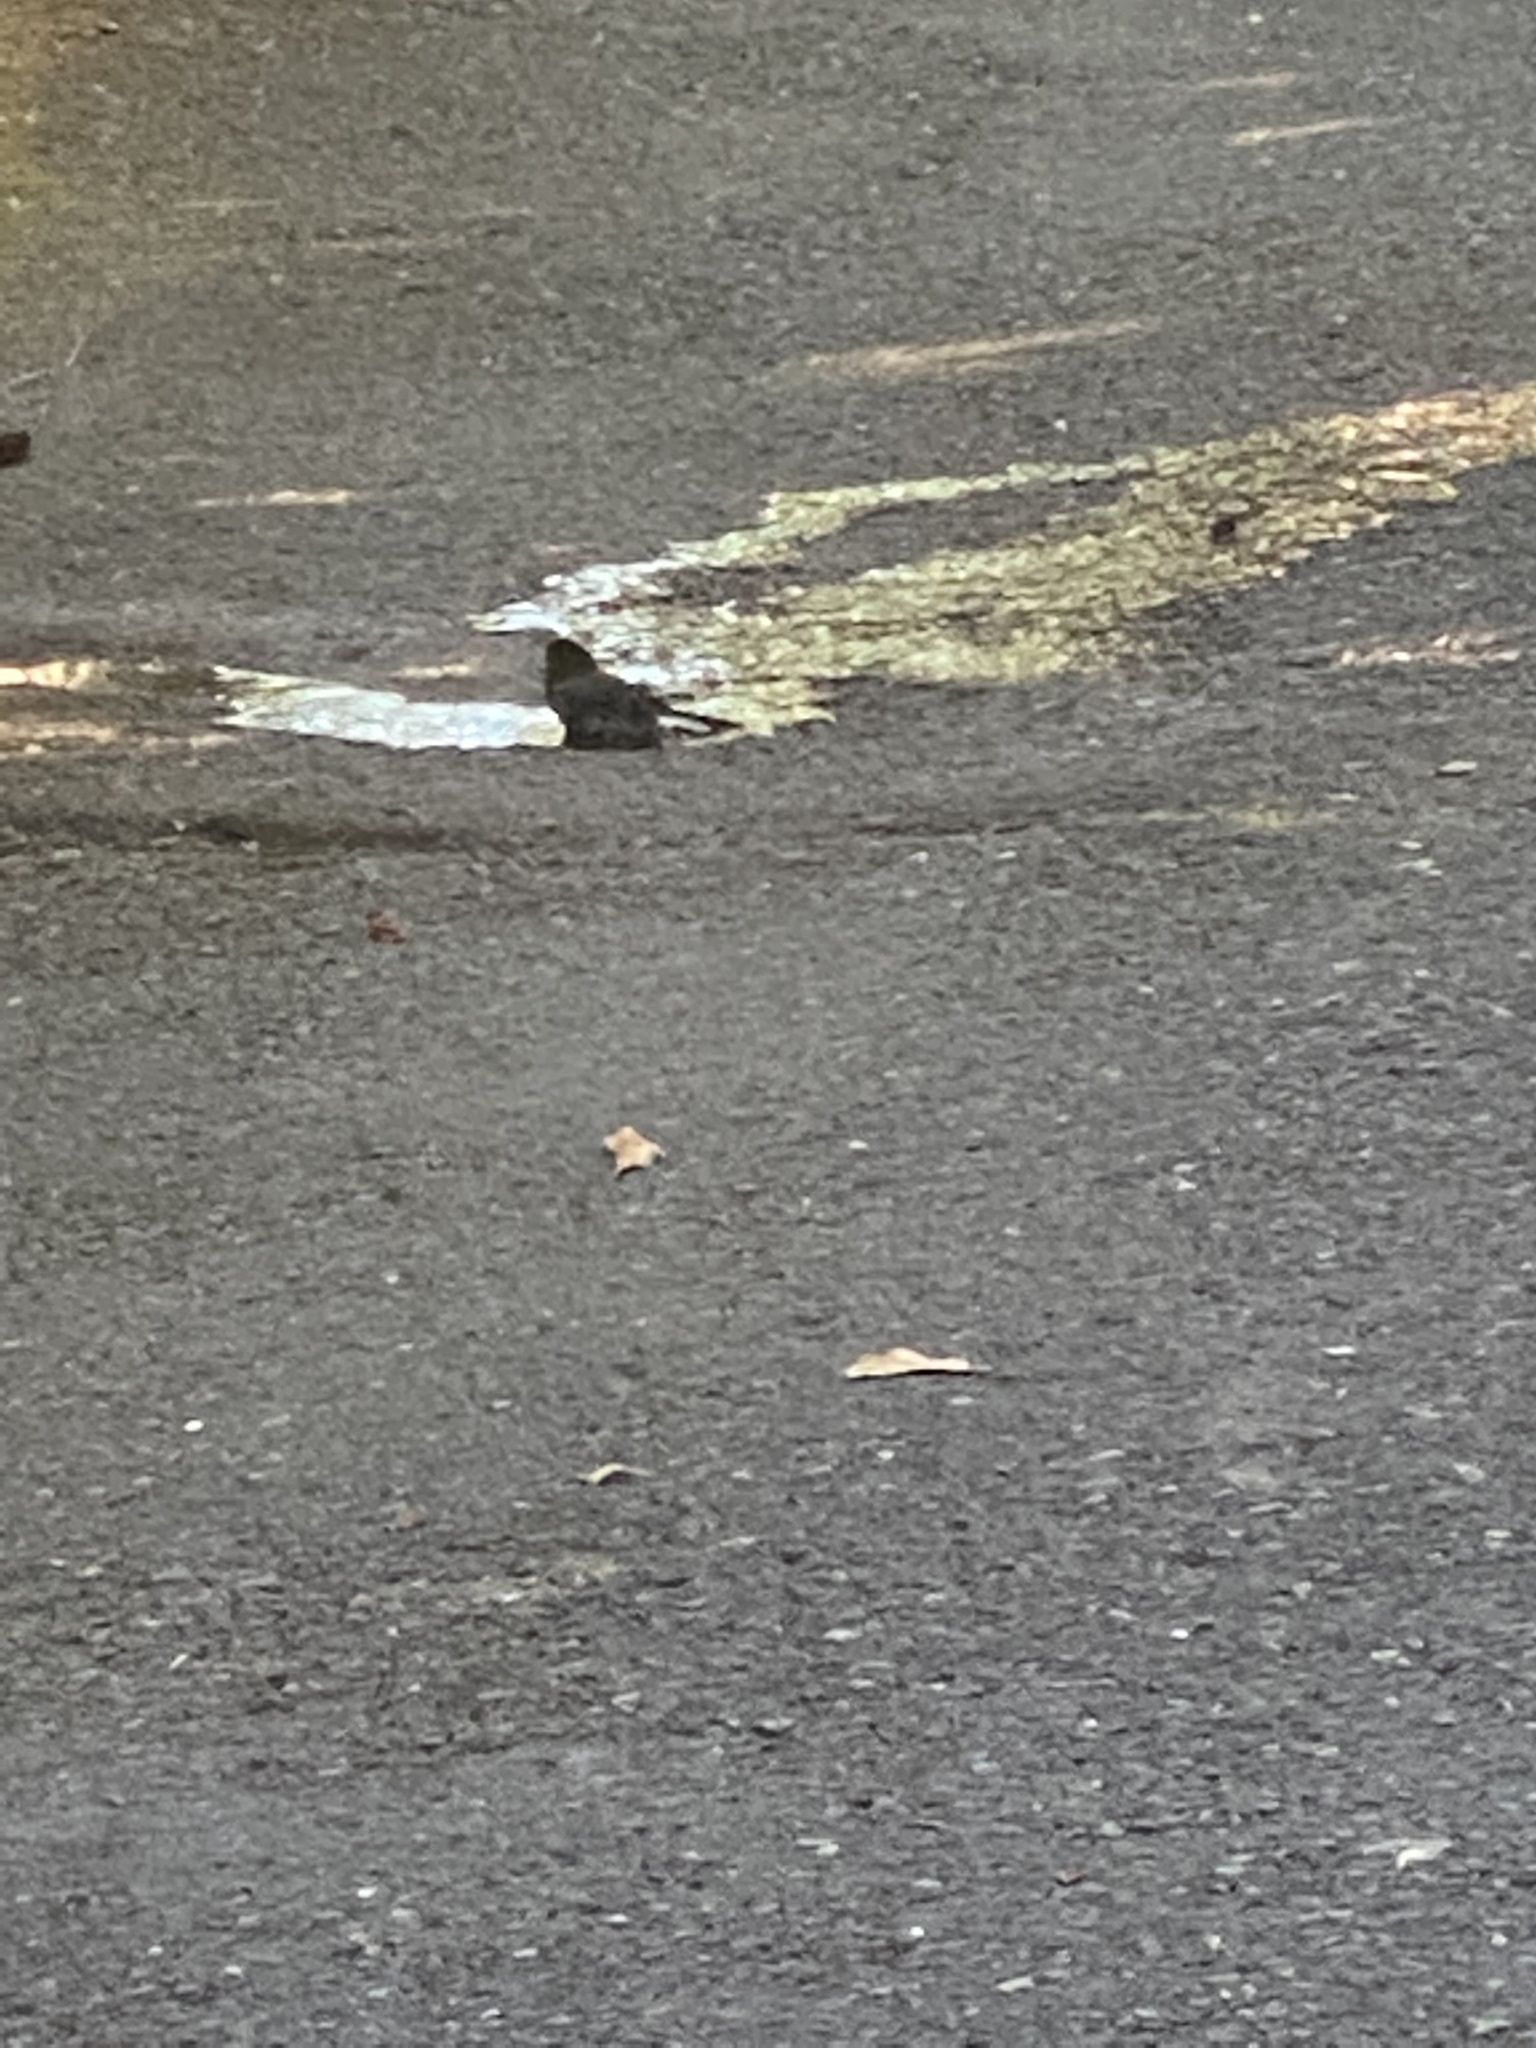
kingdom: Animalia
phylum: Chordata
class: Aves
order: Passeriformes
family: Passerellidae
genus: Junco
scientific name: Junco hyemalis
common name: Dark-eyed junco
